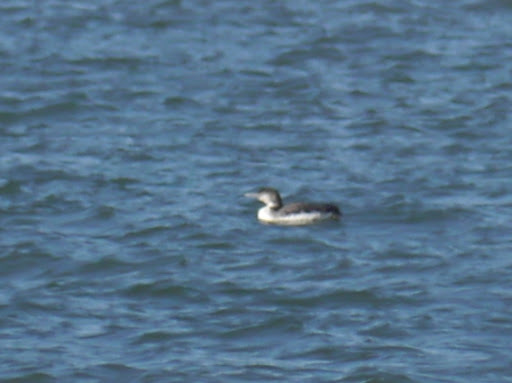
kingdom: Animalia
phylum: Chordata
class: Aves
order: Gaviiformes
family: Gaviidae
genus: Gavia
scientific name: Gavia immer
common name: Common loon
